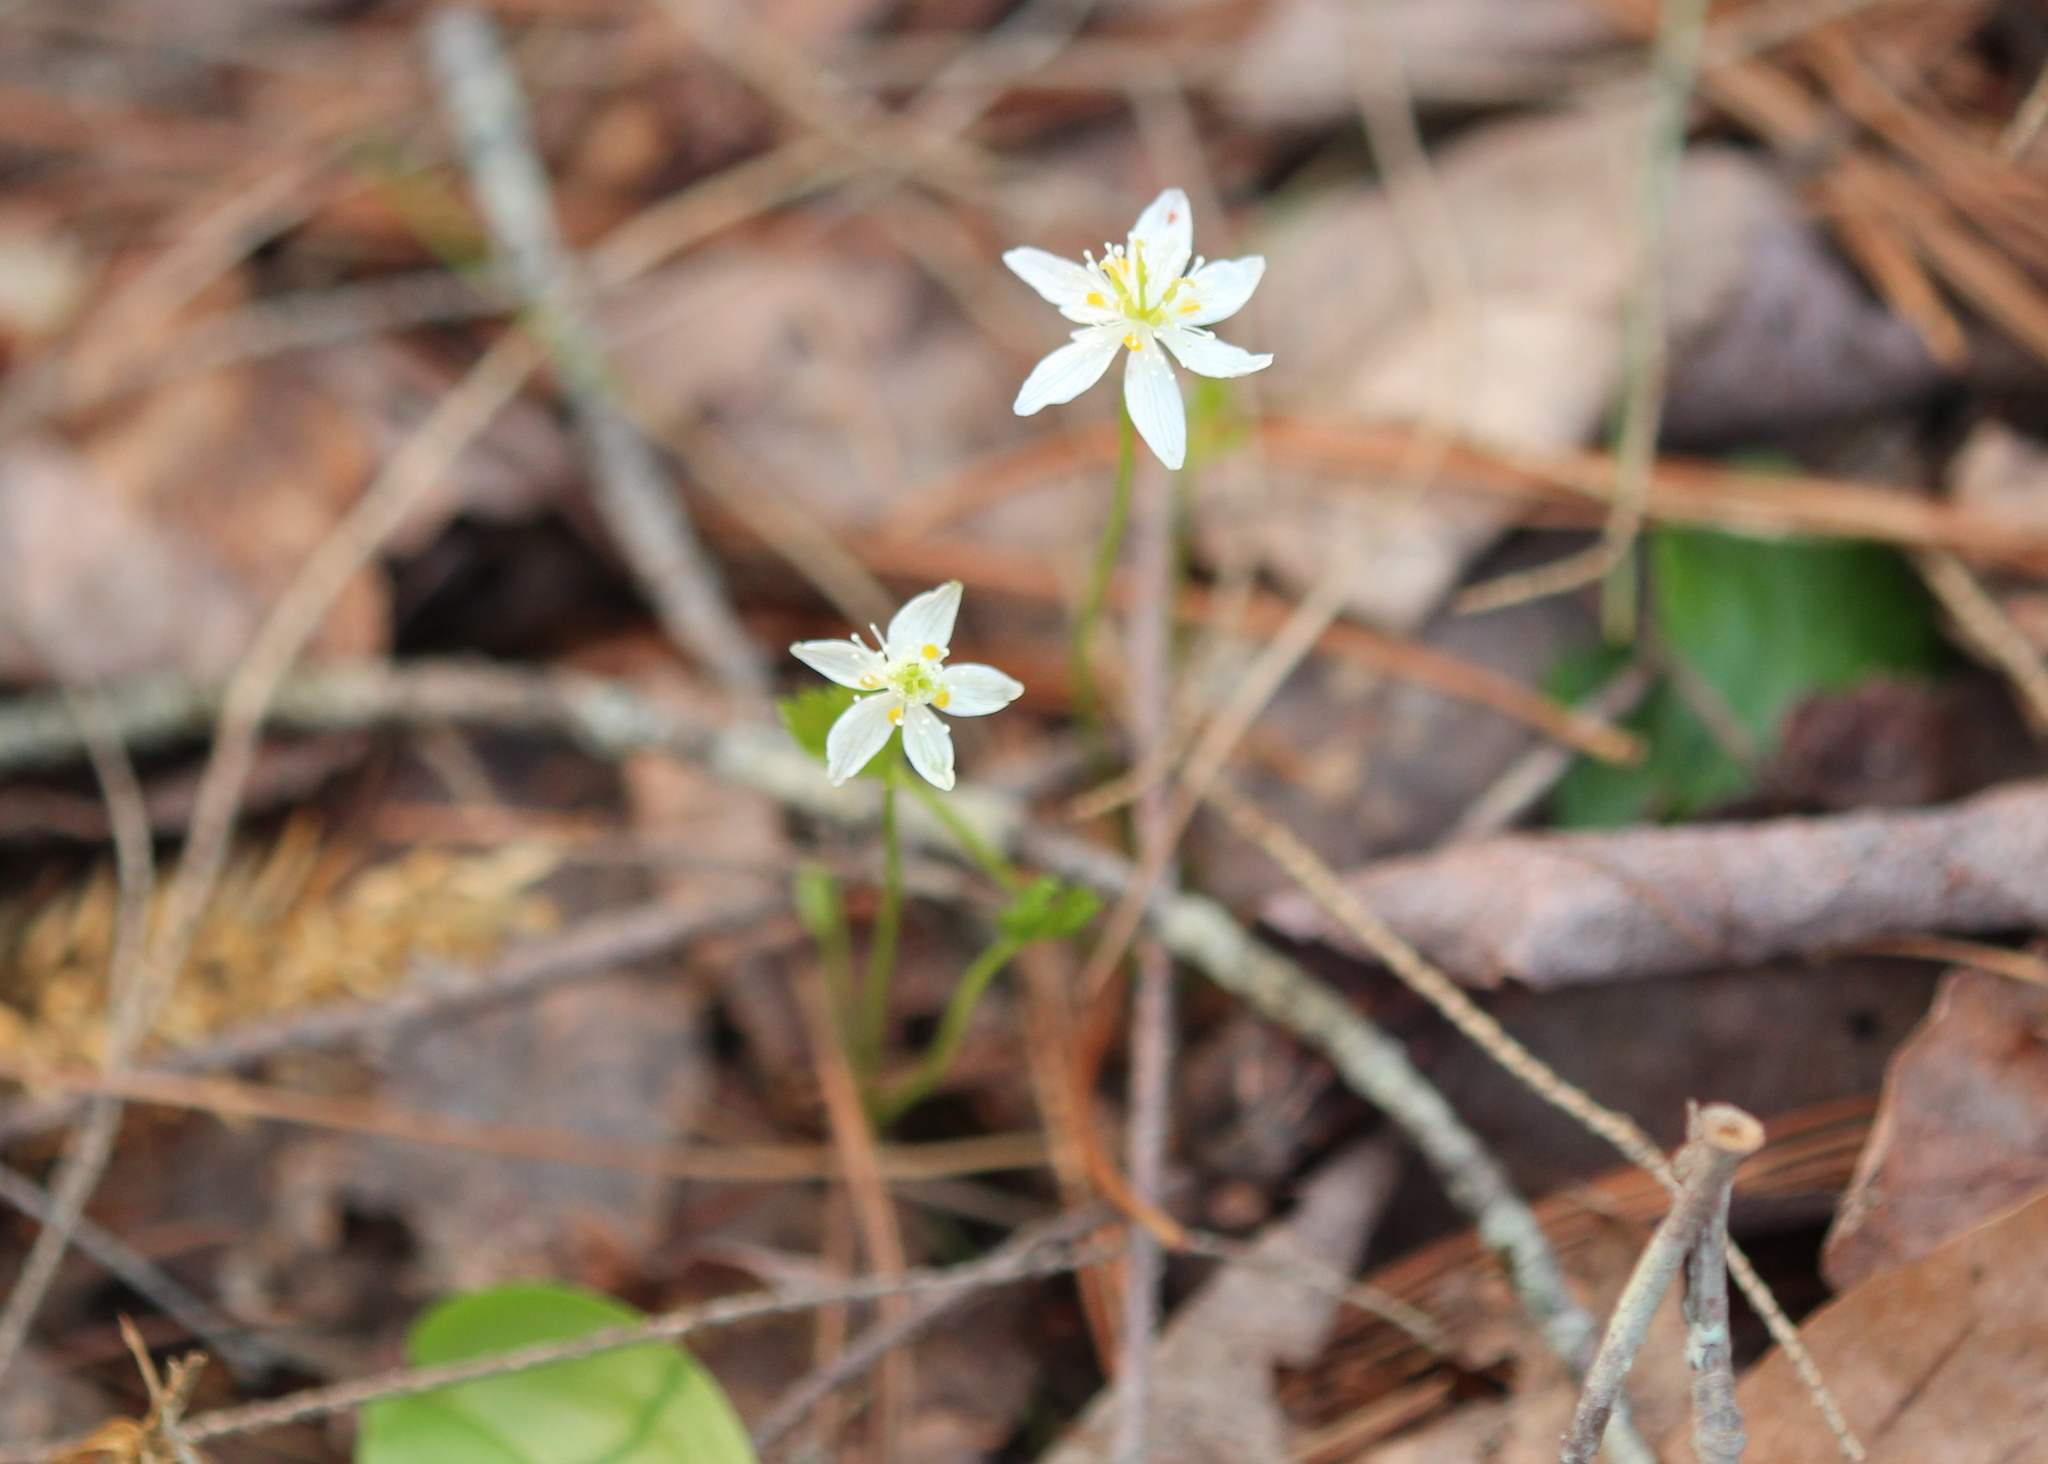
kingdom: Plantae
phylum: Tracheophyta
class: Magnoliopsida
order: Ranunculales
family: Ranunculaceae
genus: Coptis
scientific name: Coptis trifolia
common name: Canker-root
